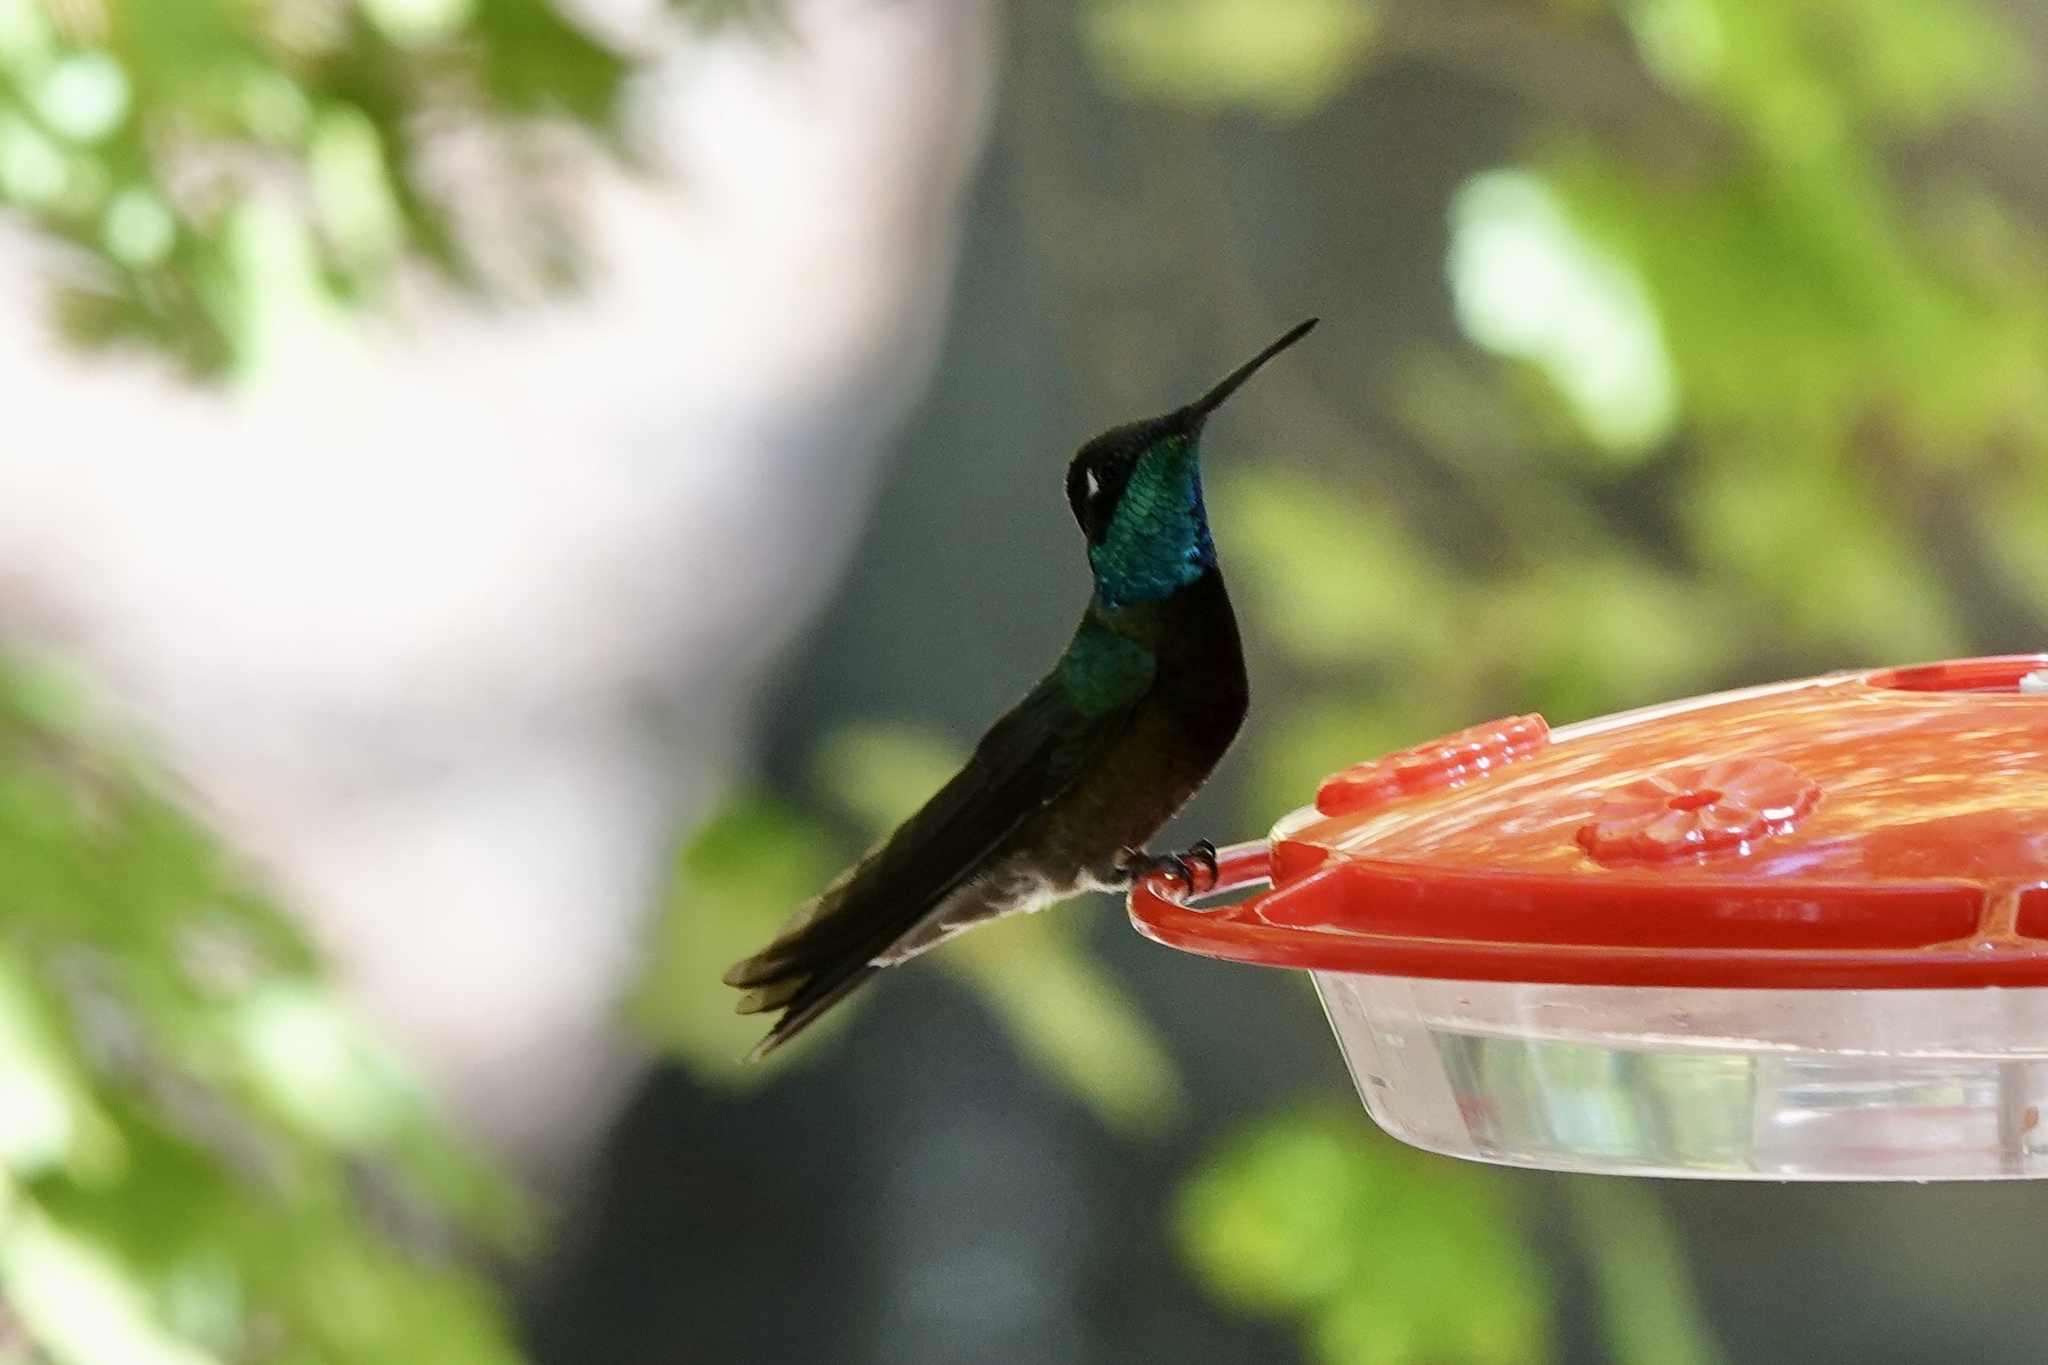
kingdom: Animalia
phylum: Chordata
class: Aves
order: Apodiformes
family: Trochilidae
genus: Eugenes
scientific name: Eugenes fulgens
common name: Magnificent hummingbird
